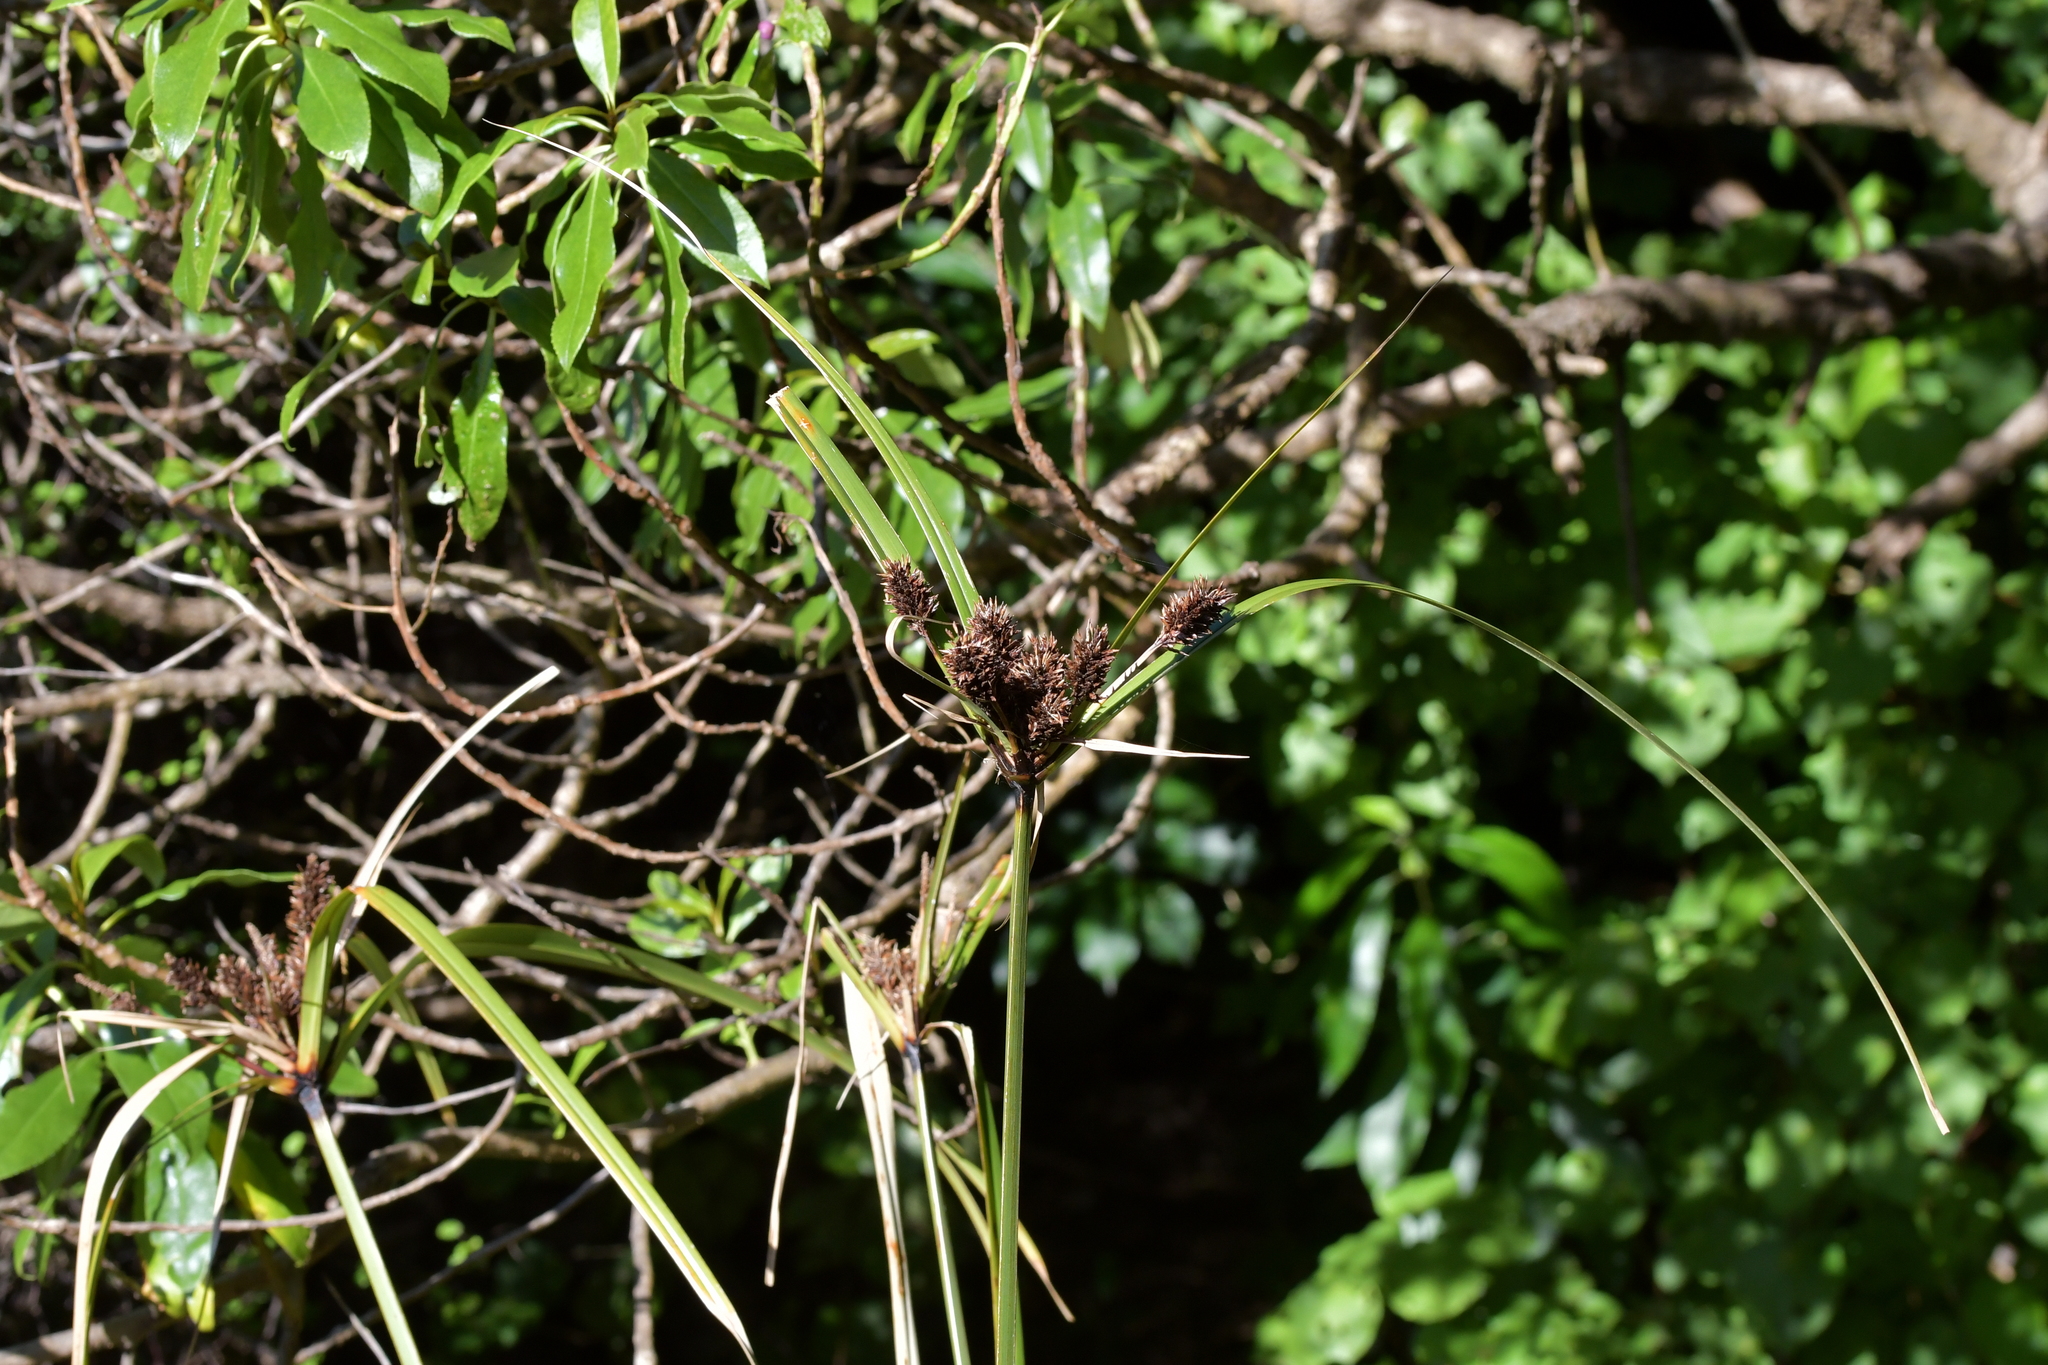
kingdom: Plantae
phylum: Tracheophyta
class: Liliopsida
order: Poales
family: Cyperaceae
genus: Cyperus
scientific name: Cyperus ustulatus
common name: Giant umbrella-sedge
